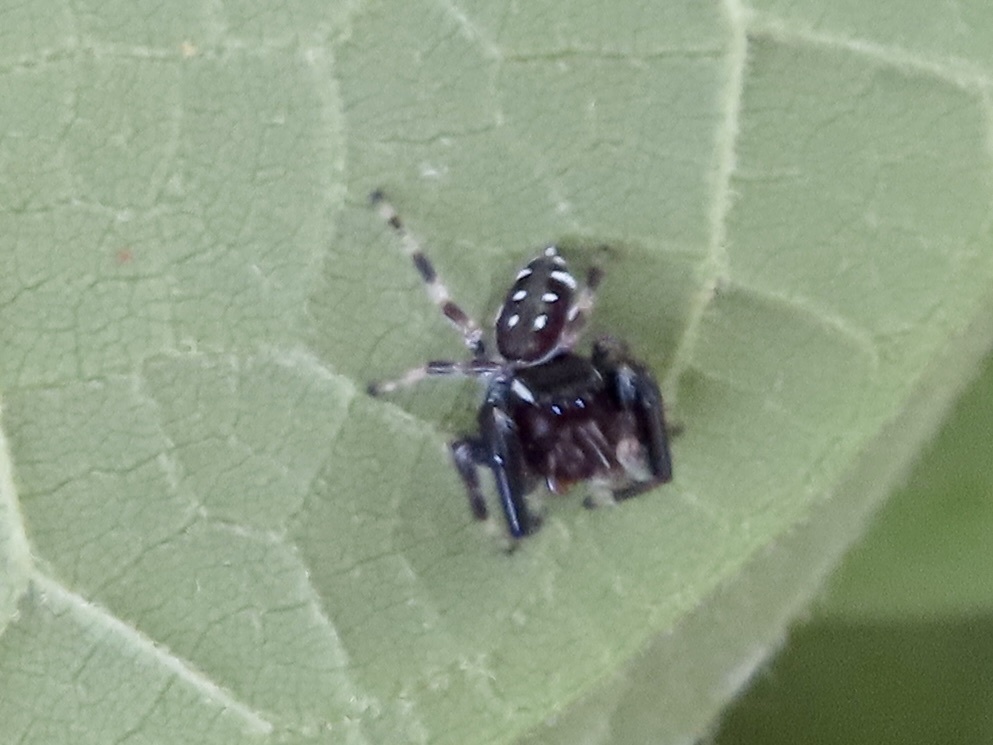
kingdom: Animalia
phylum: Arthropoda
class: Arachnida
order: Araneae
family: Salticidae
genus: Paraphidippus
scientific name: Paraphidippus aurantius
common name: Jumping spiders
